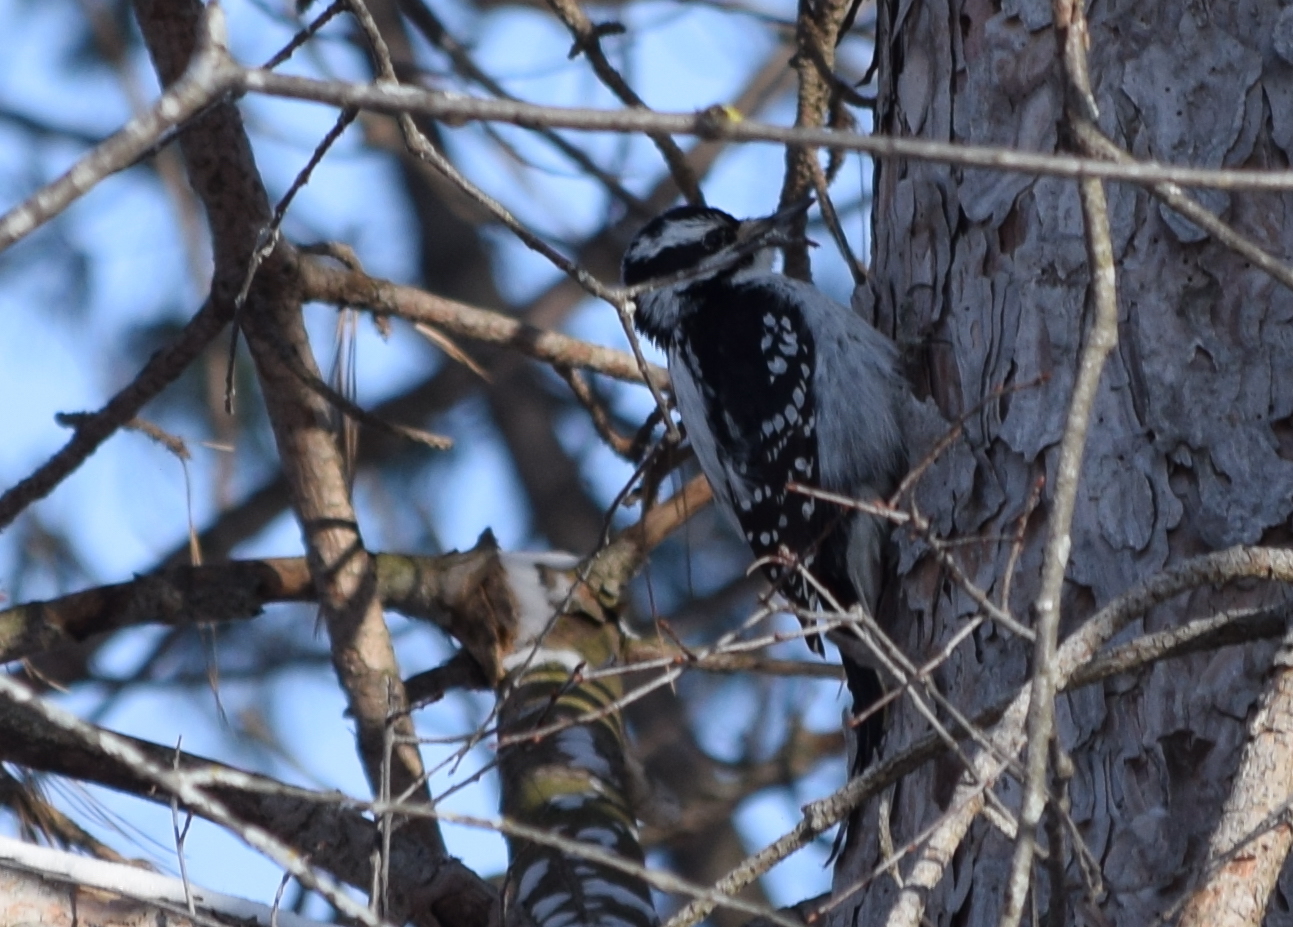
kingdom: Animalia
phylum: Chordata
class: Aves
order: Piciformes
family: Picidae
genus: Leuconotopicus
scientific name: Leuconotopicus villosus
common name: Hairy woodpecker
